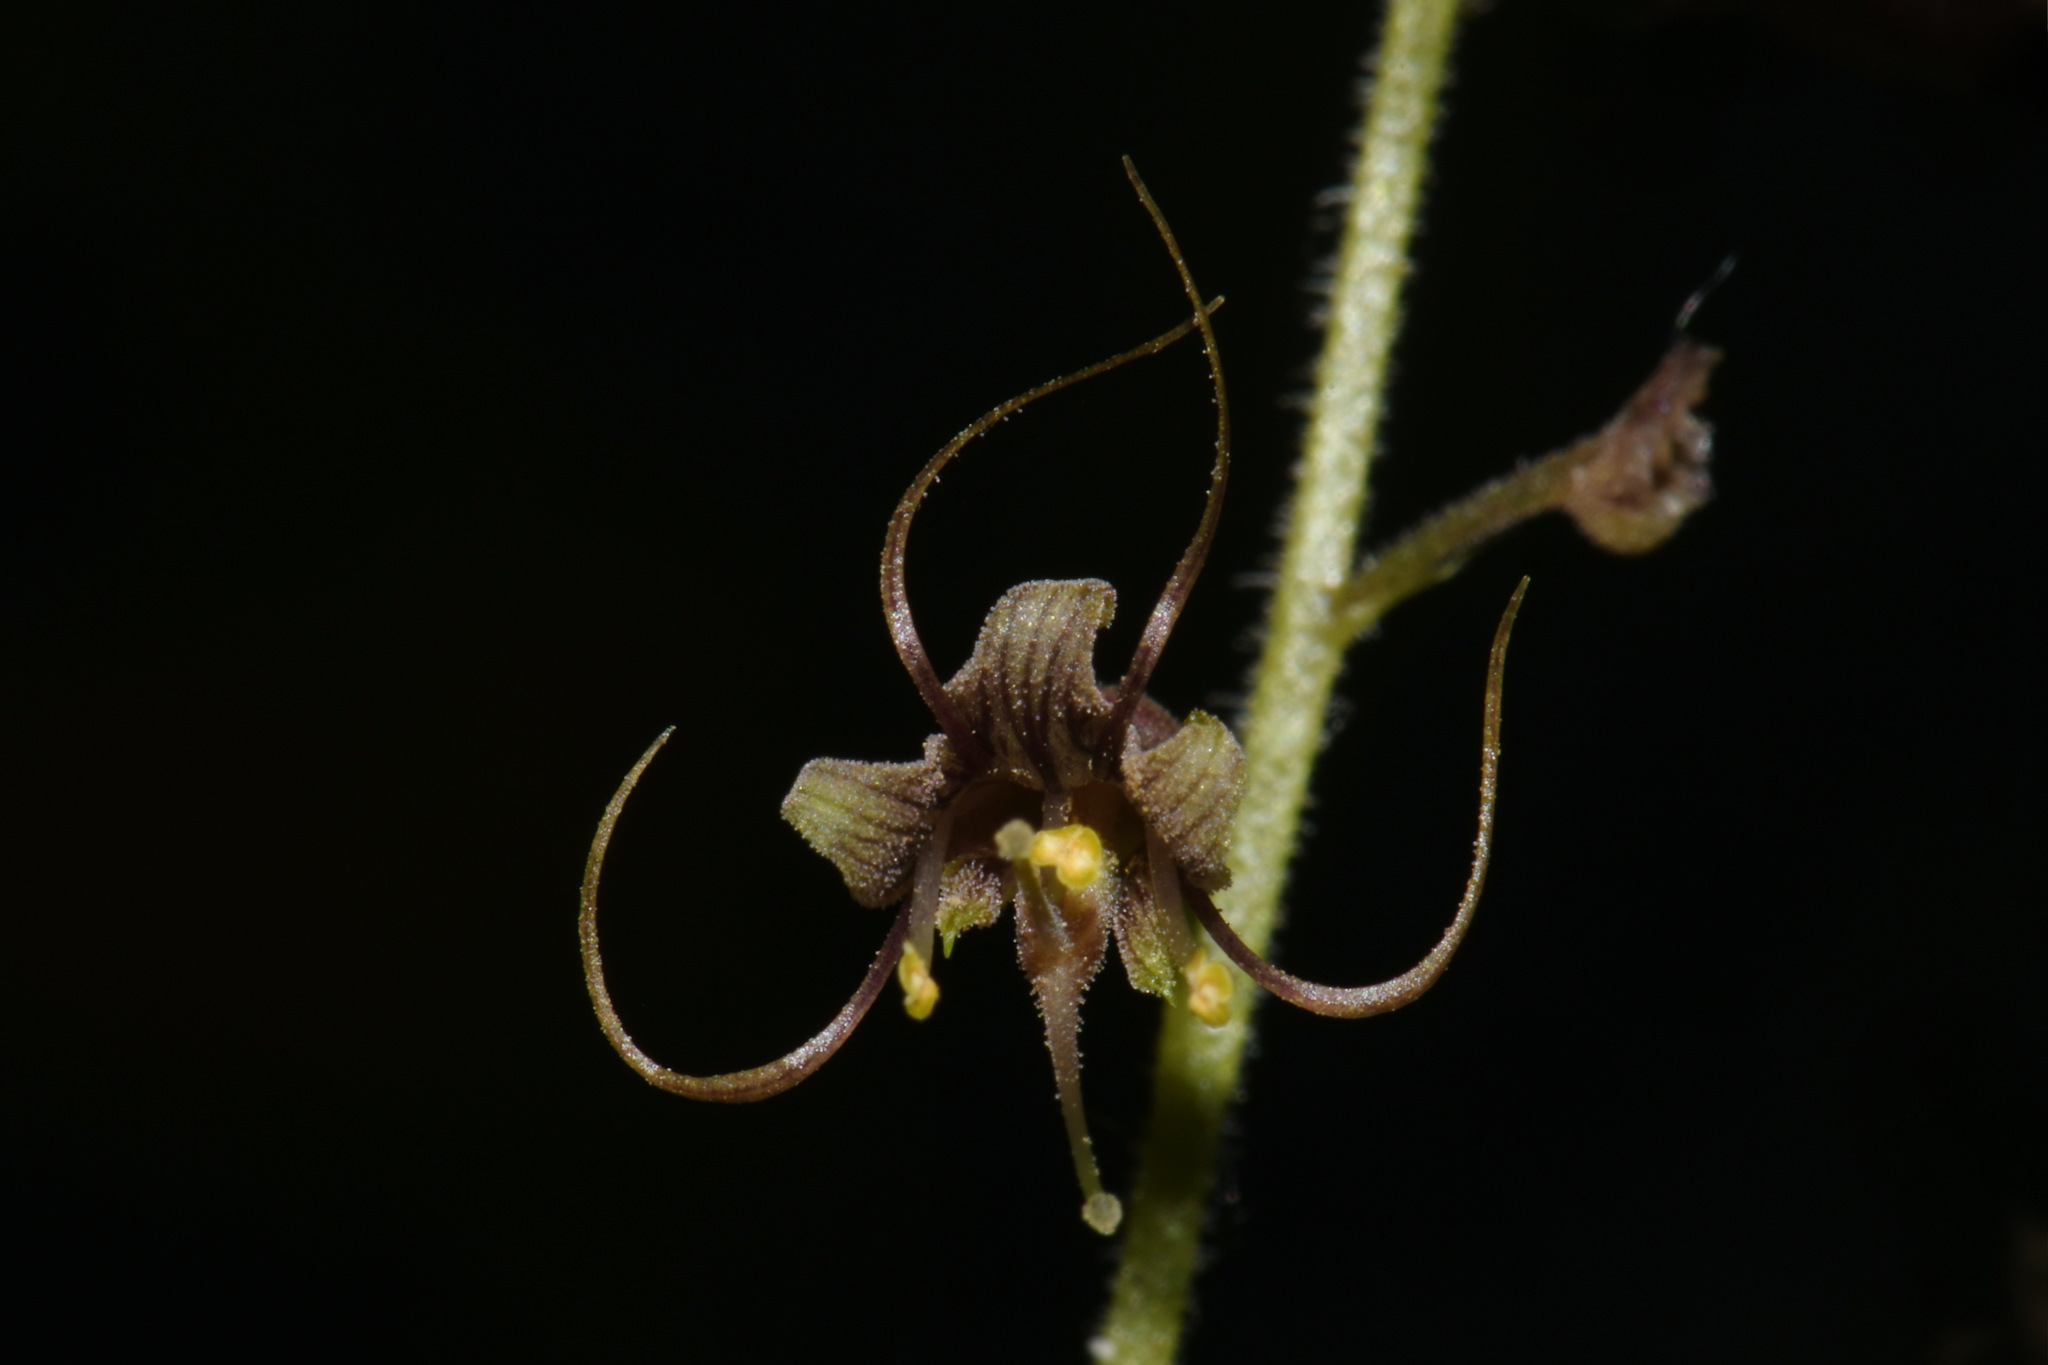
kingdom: Plantae
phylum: Tracheophyta
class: Magnoliopsida
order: Saxifragales
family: Saxifragaceae
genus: Tolmiea
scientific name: Tolmiea menziesii
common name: Pick-a-back-plant
